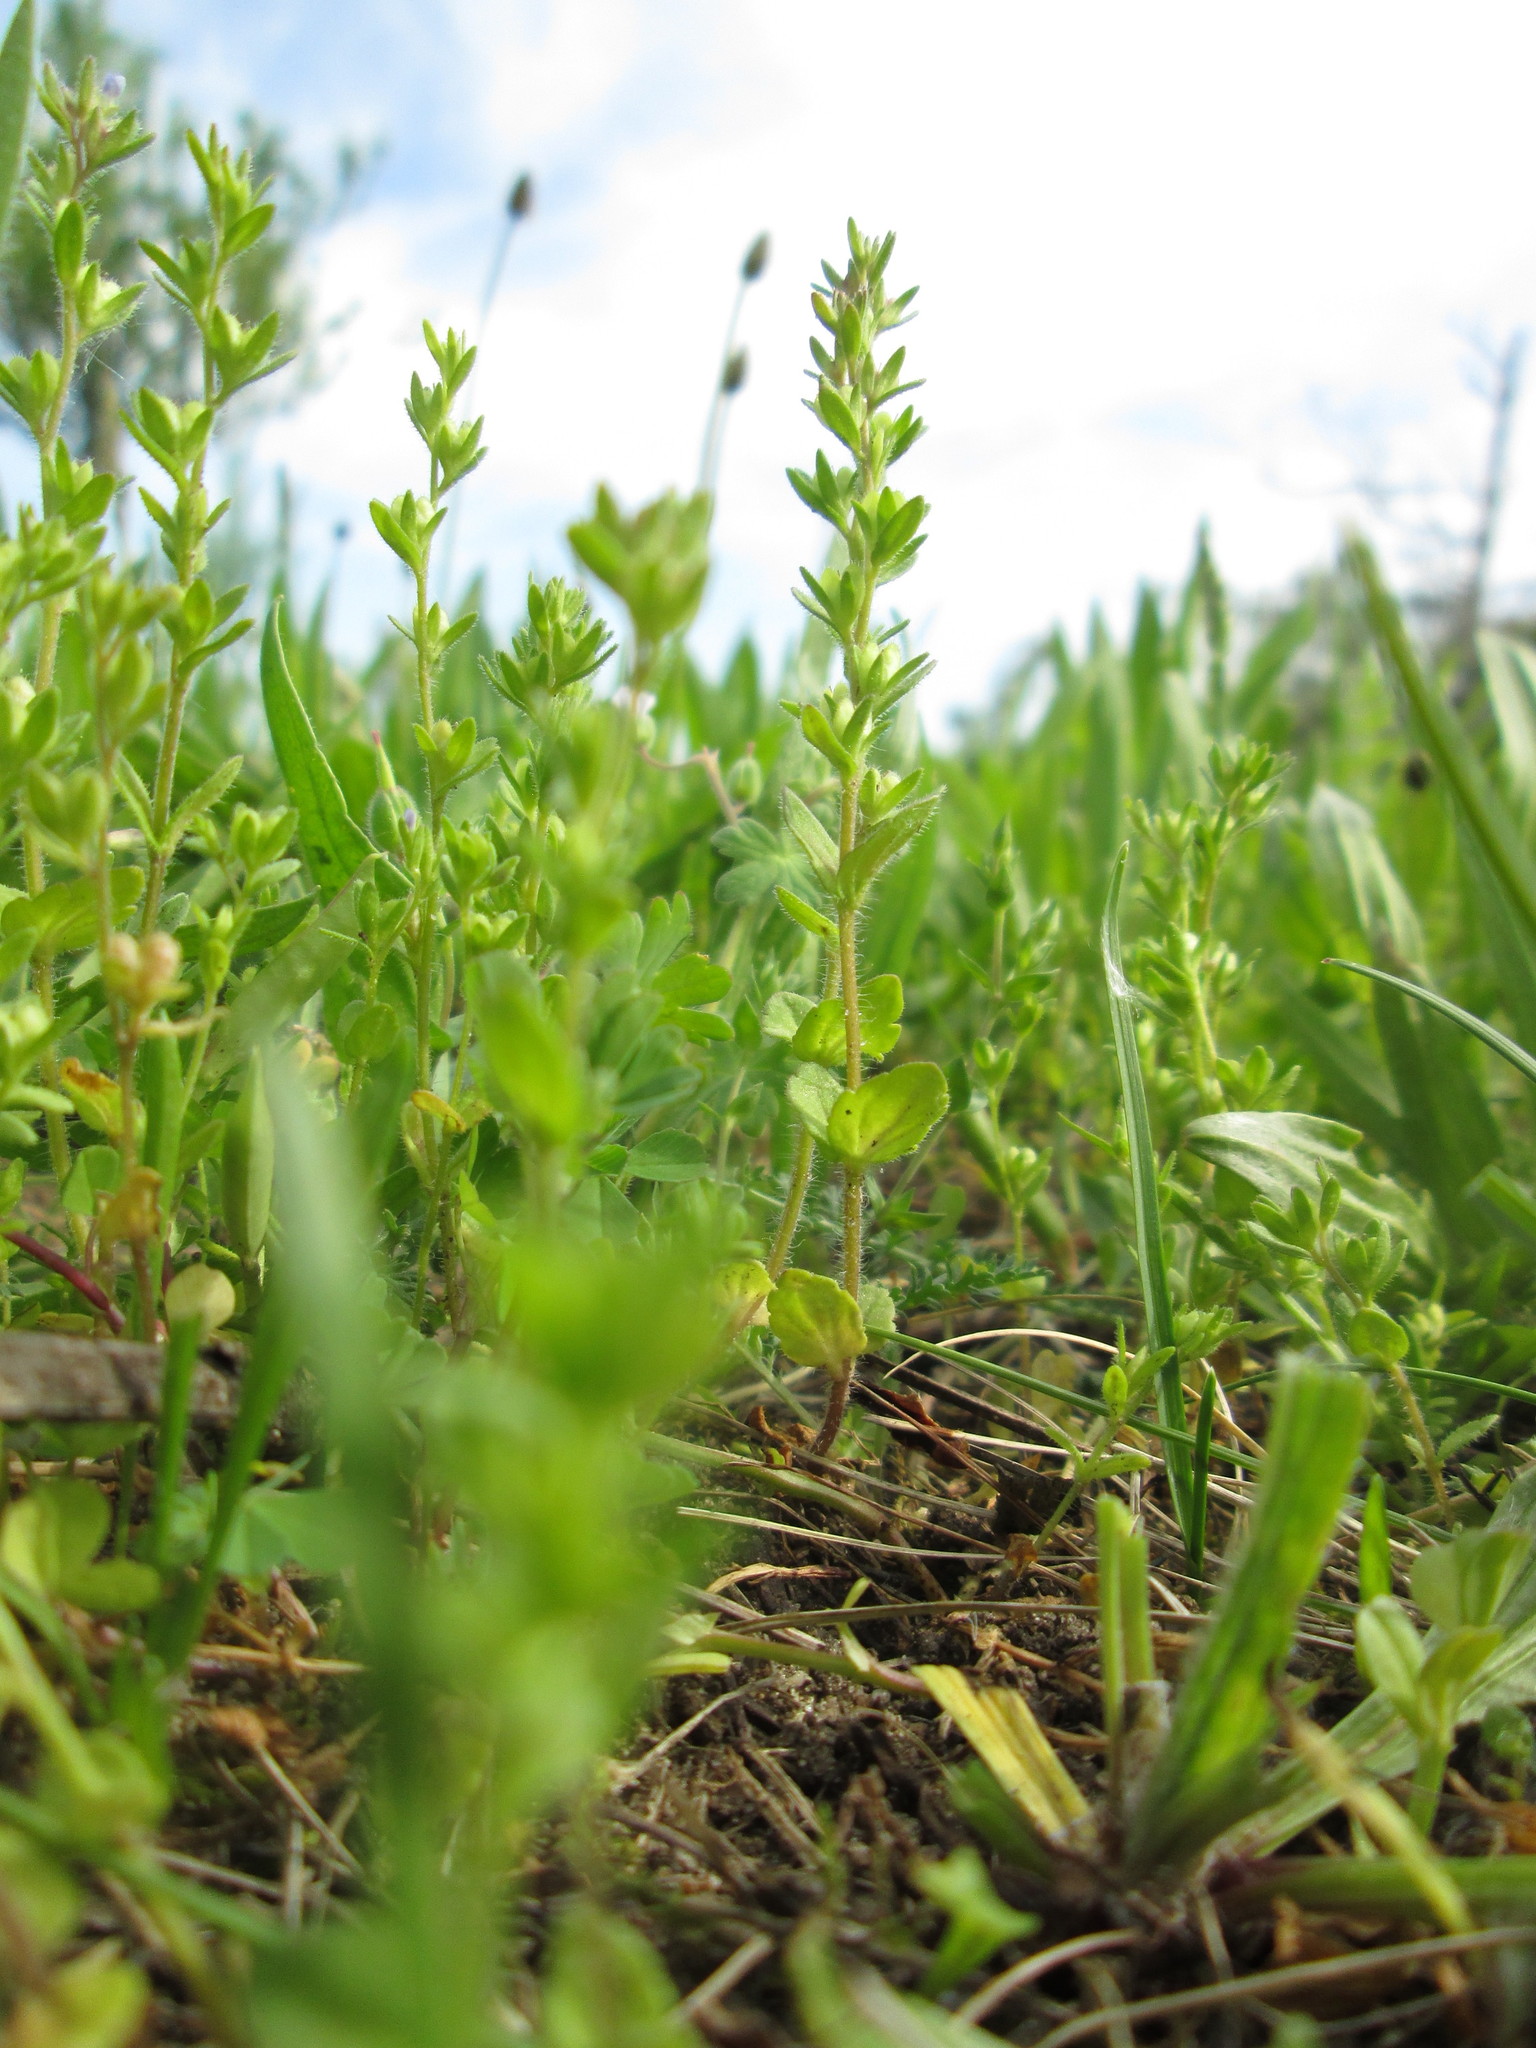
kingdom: Plantae
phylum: Tracheophyta
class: Magnoliopsida
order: Lamiales
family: Plantaginaceae
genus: Veronica
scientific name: Veronica arvensis
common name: Corn speedwell
